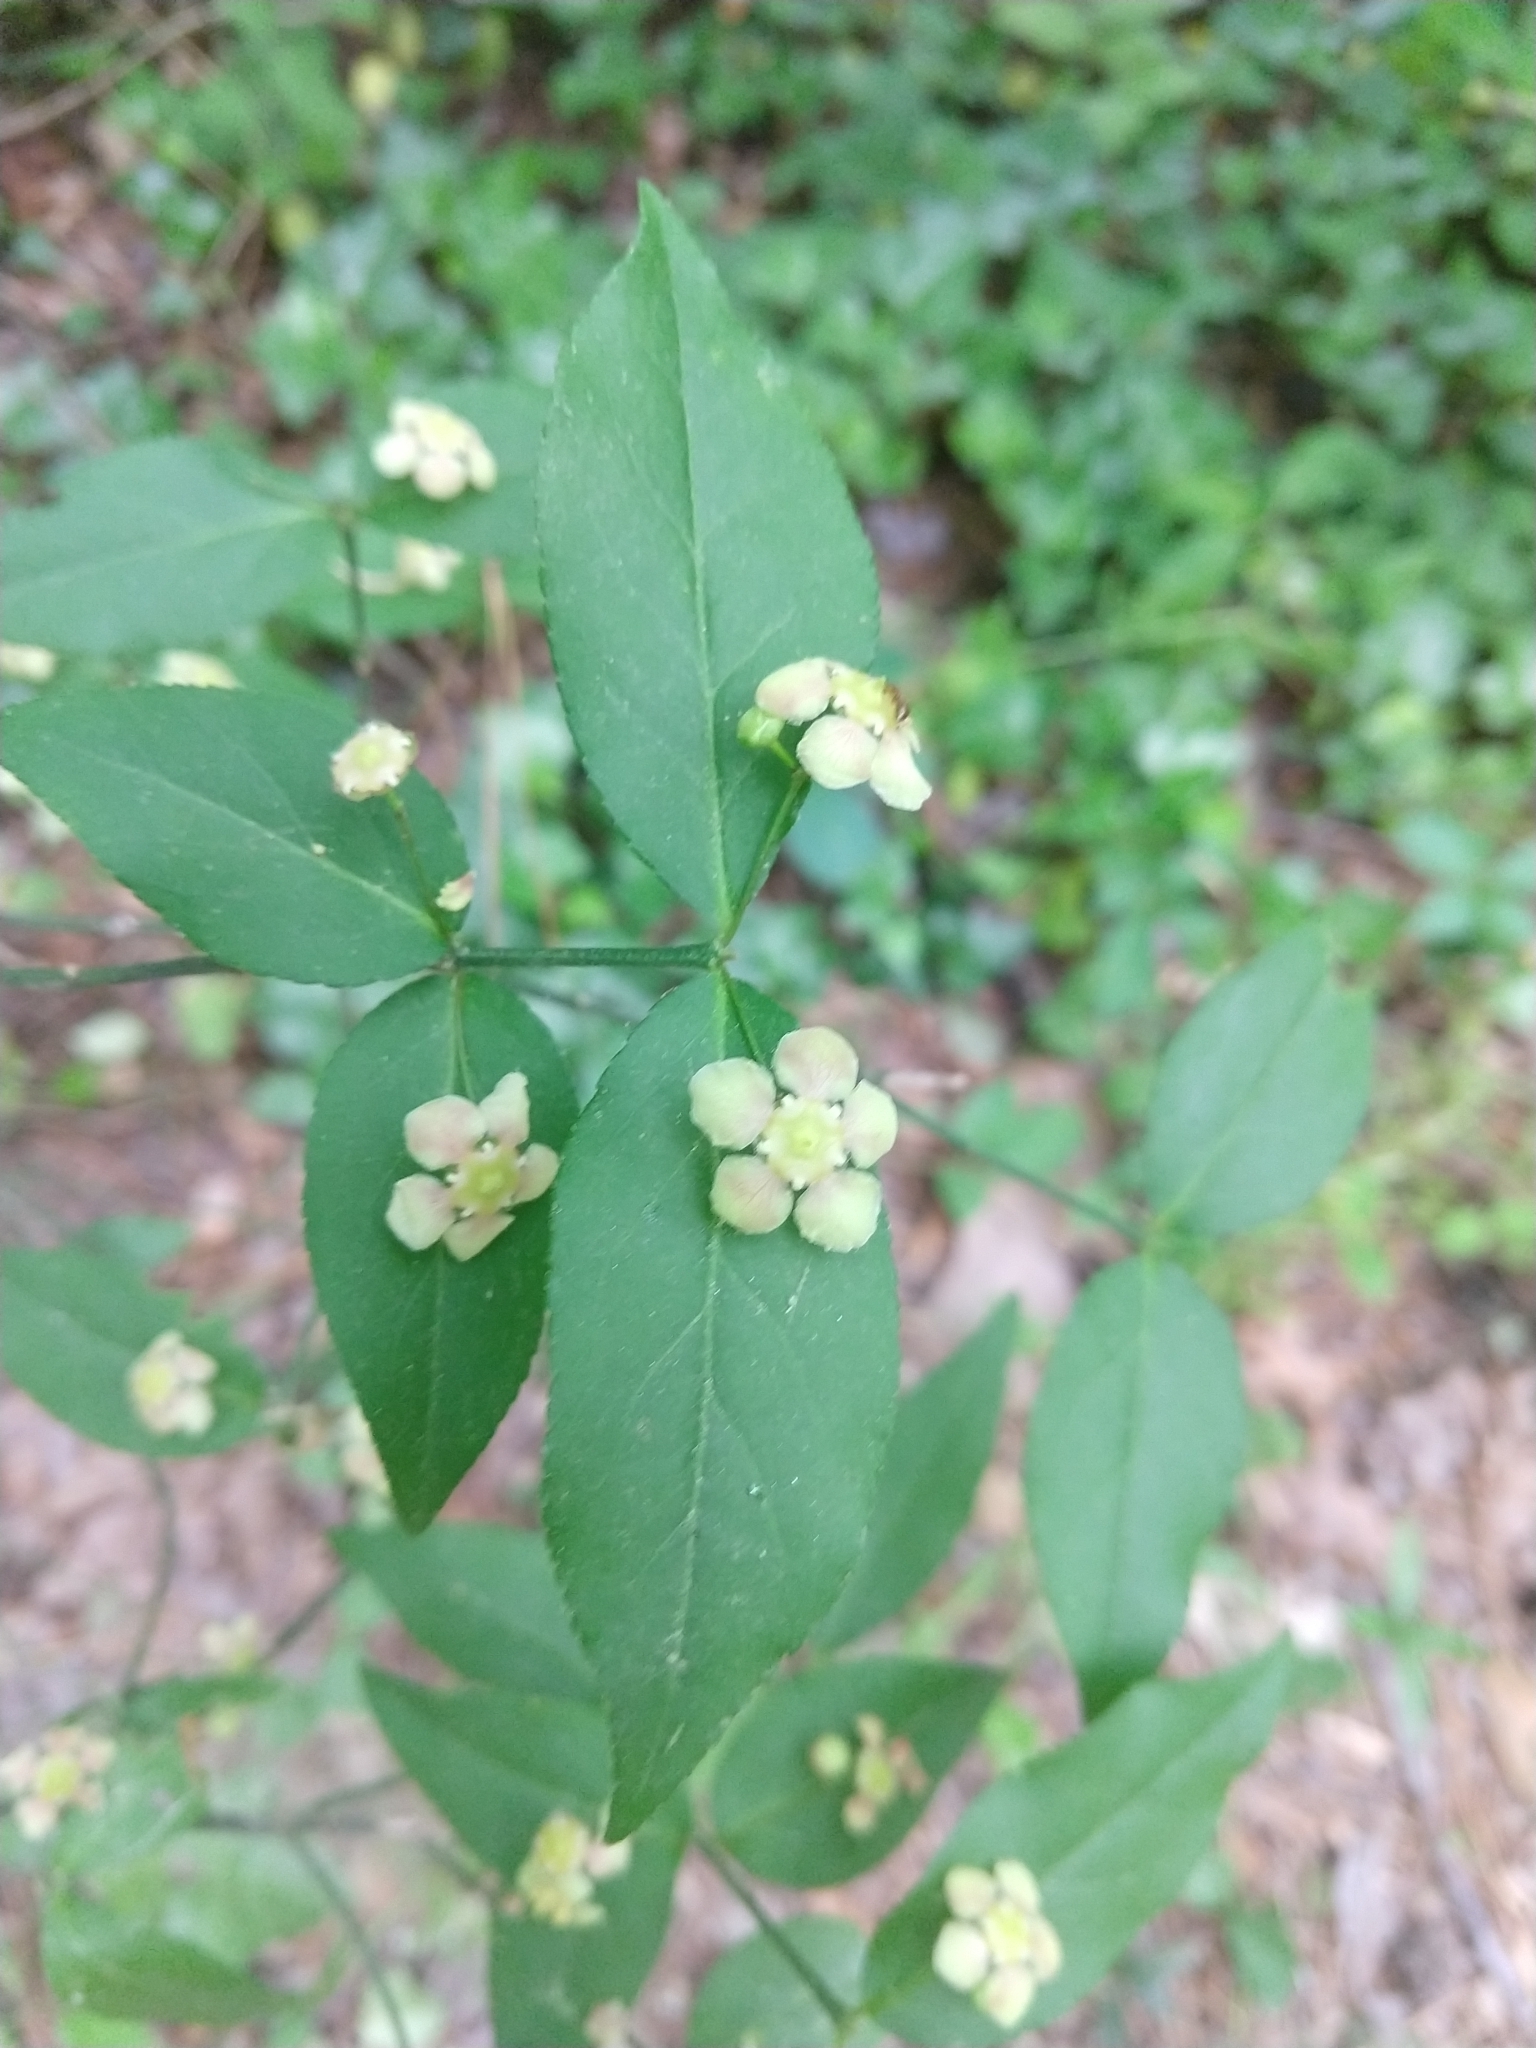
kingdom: Plantae
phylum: Tracheophyta
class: Magnoliopsida
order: Celastrales
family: Celastraceae
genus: Euonymus
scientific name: Euonymus americanus
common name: Bursting-heart
